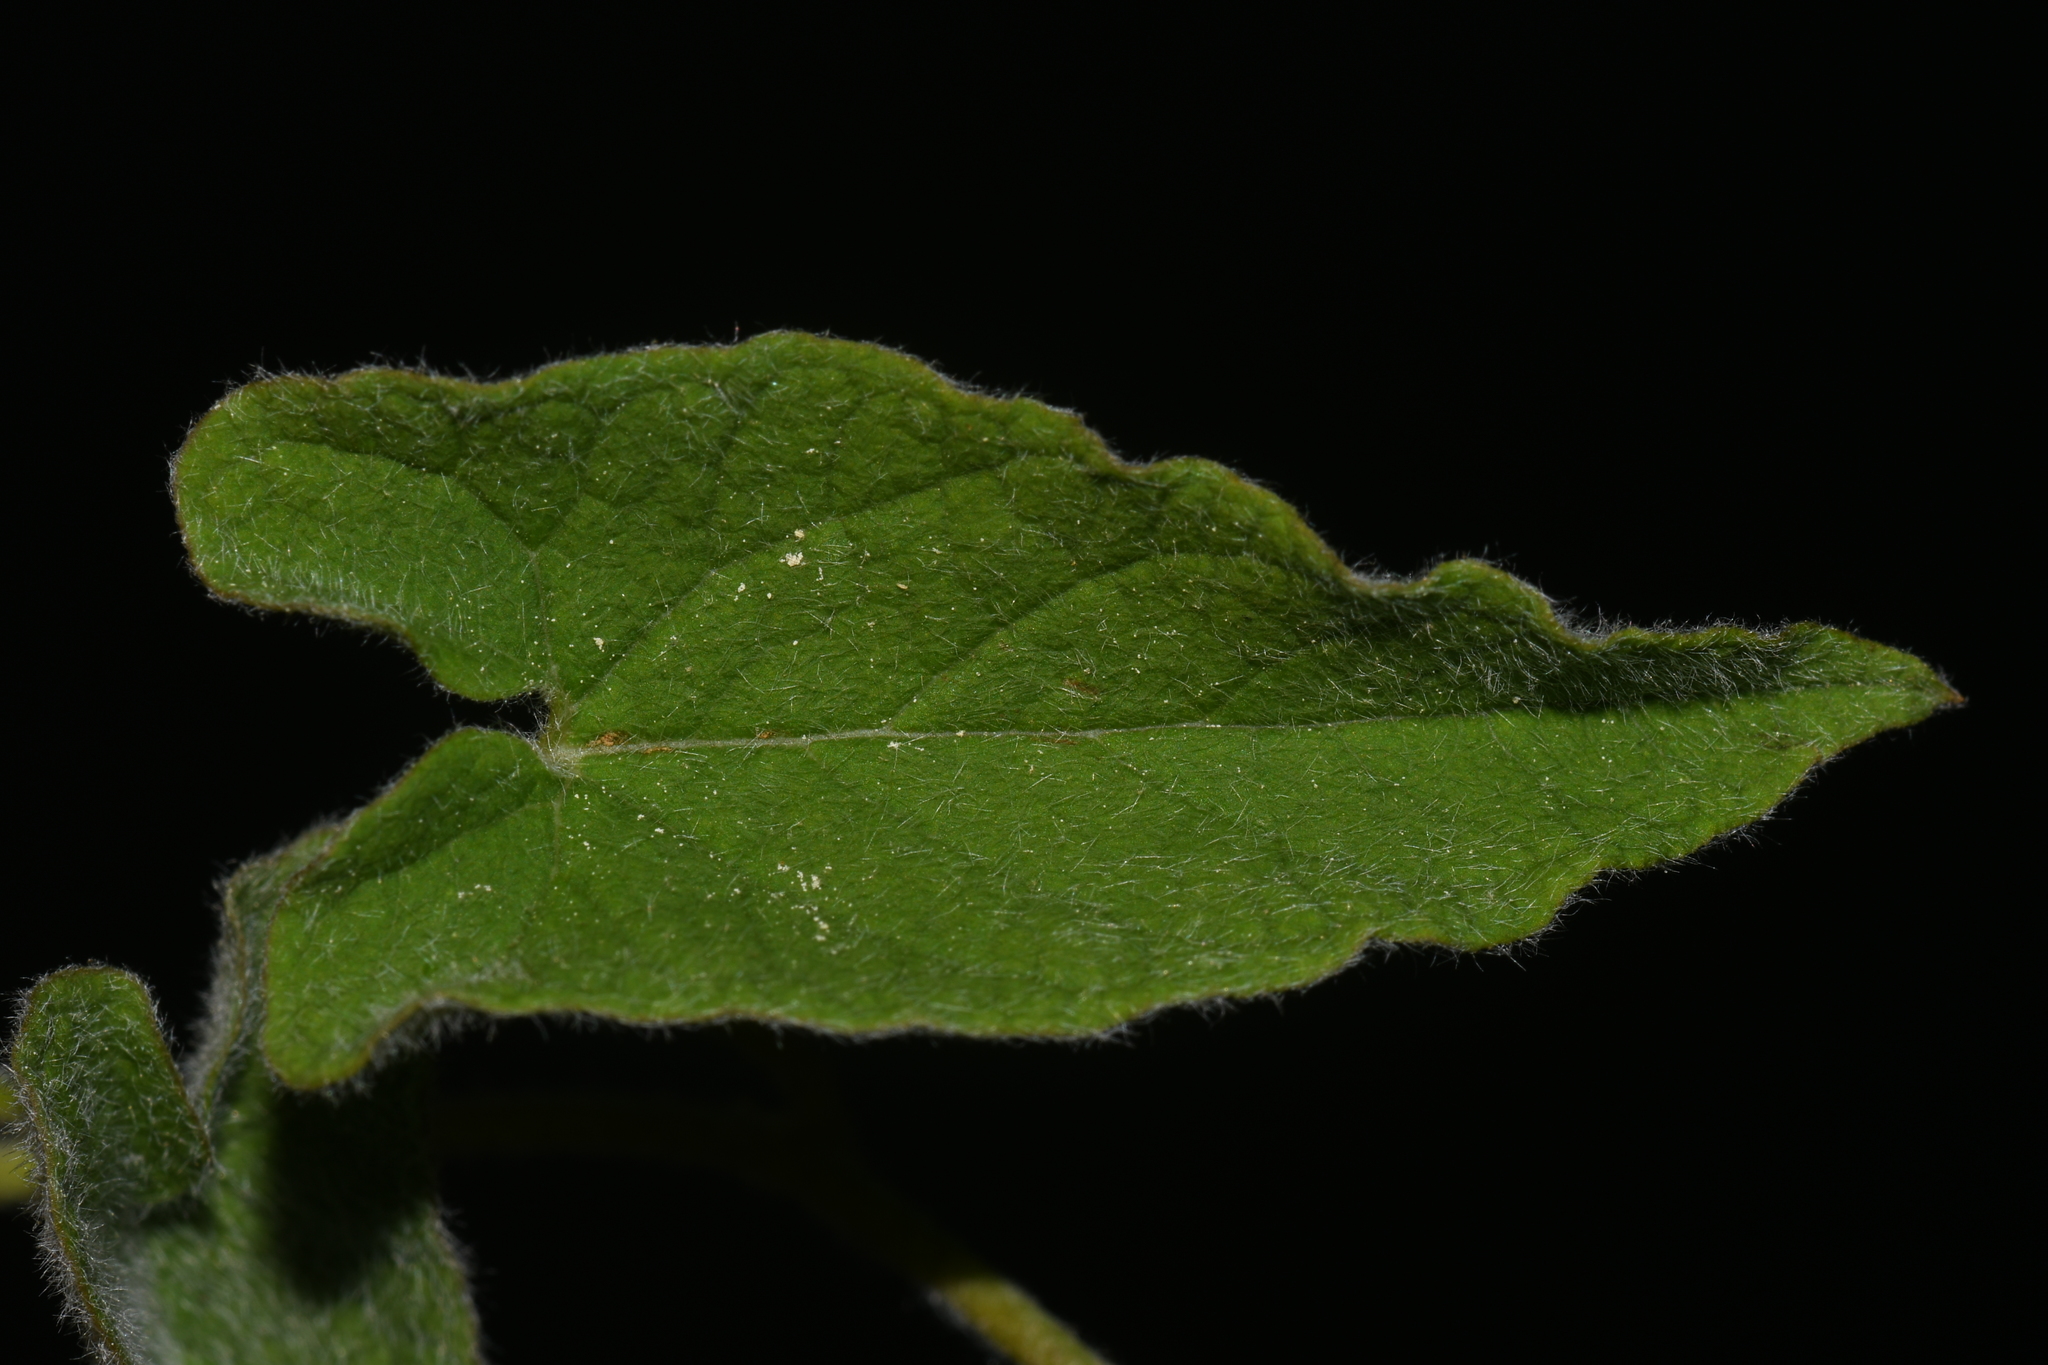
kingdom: Plantae
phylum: Tracheophyta
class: Magnoliopsida
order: Solanales
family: Convolvulaceae
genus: Calystegia
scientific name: Calystegia catesbeiana
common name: Catesby's false bindweed
